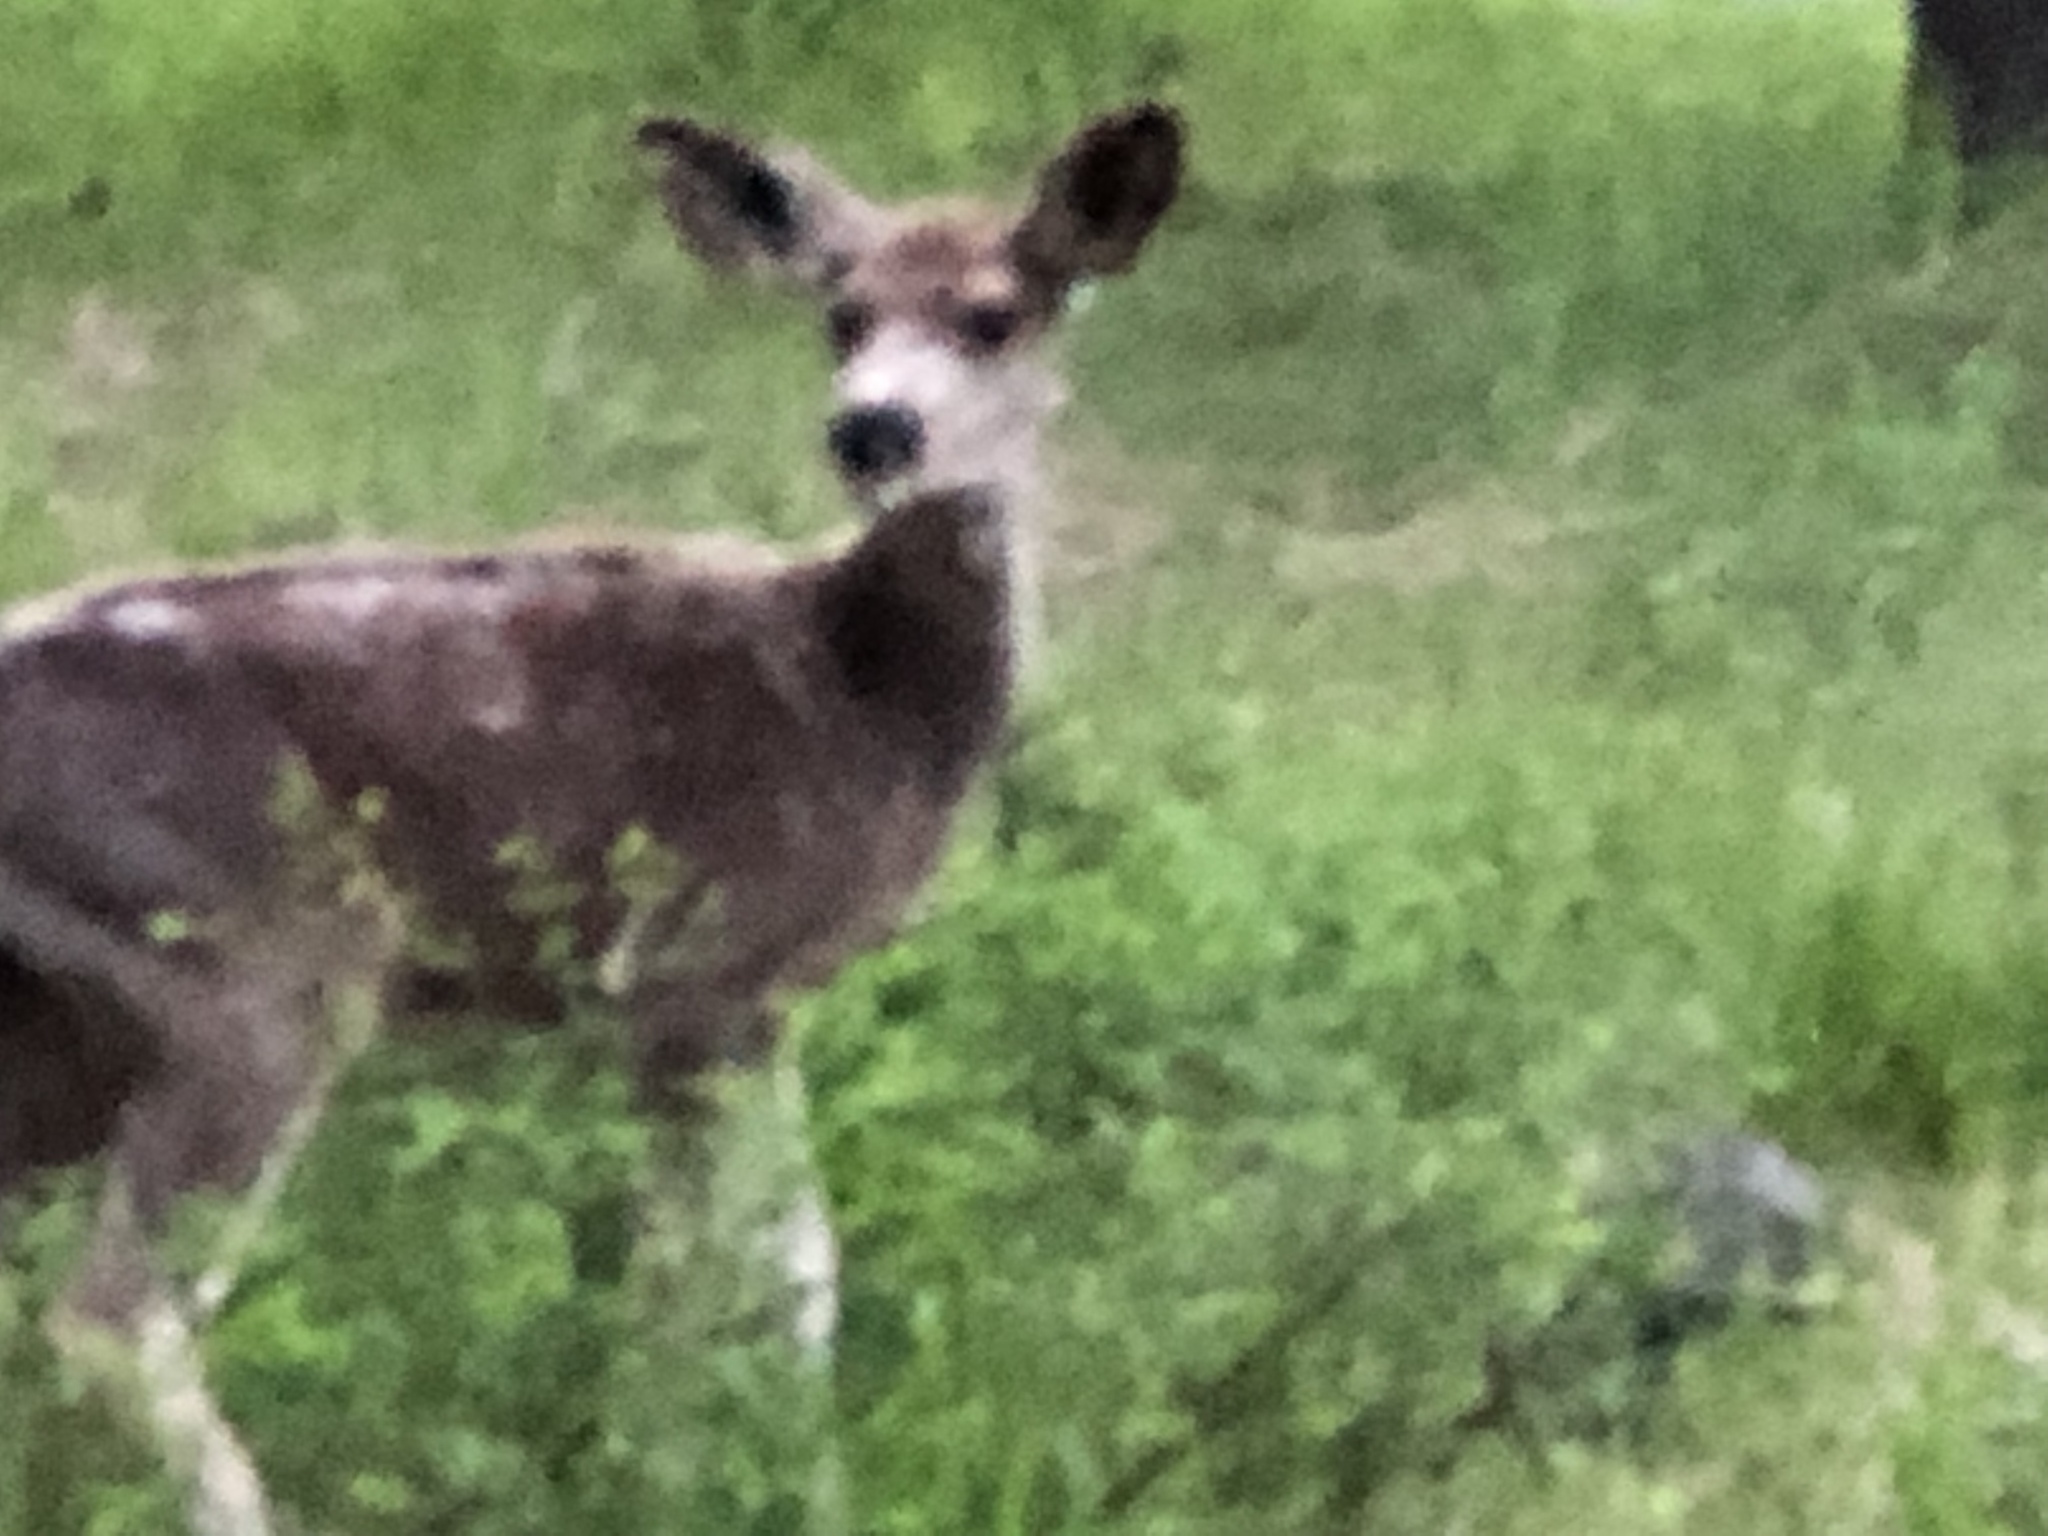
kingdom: Animalia
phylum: Chordata
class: Mammalia
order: Artiodactyla
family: Cervidae
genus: Odocoileus
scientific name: Odocoileus hemionus
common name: Mule deer
